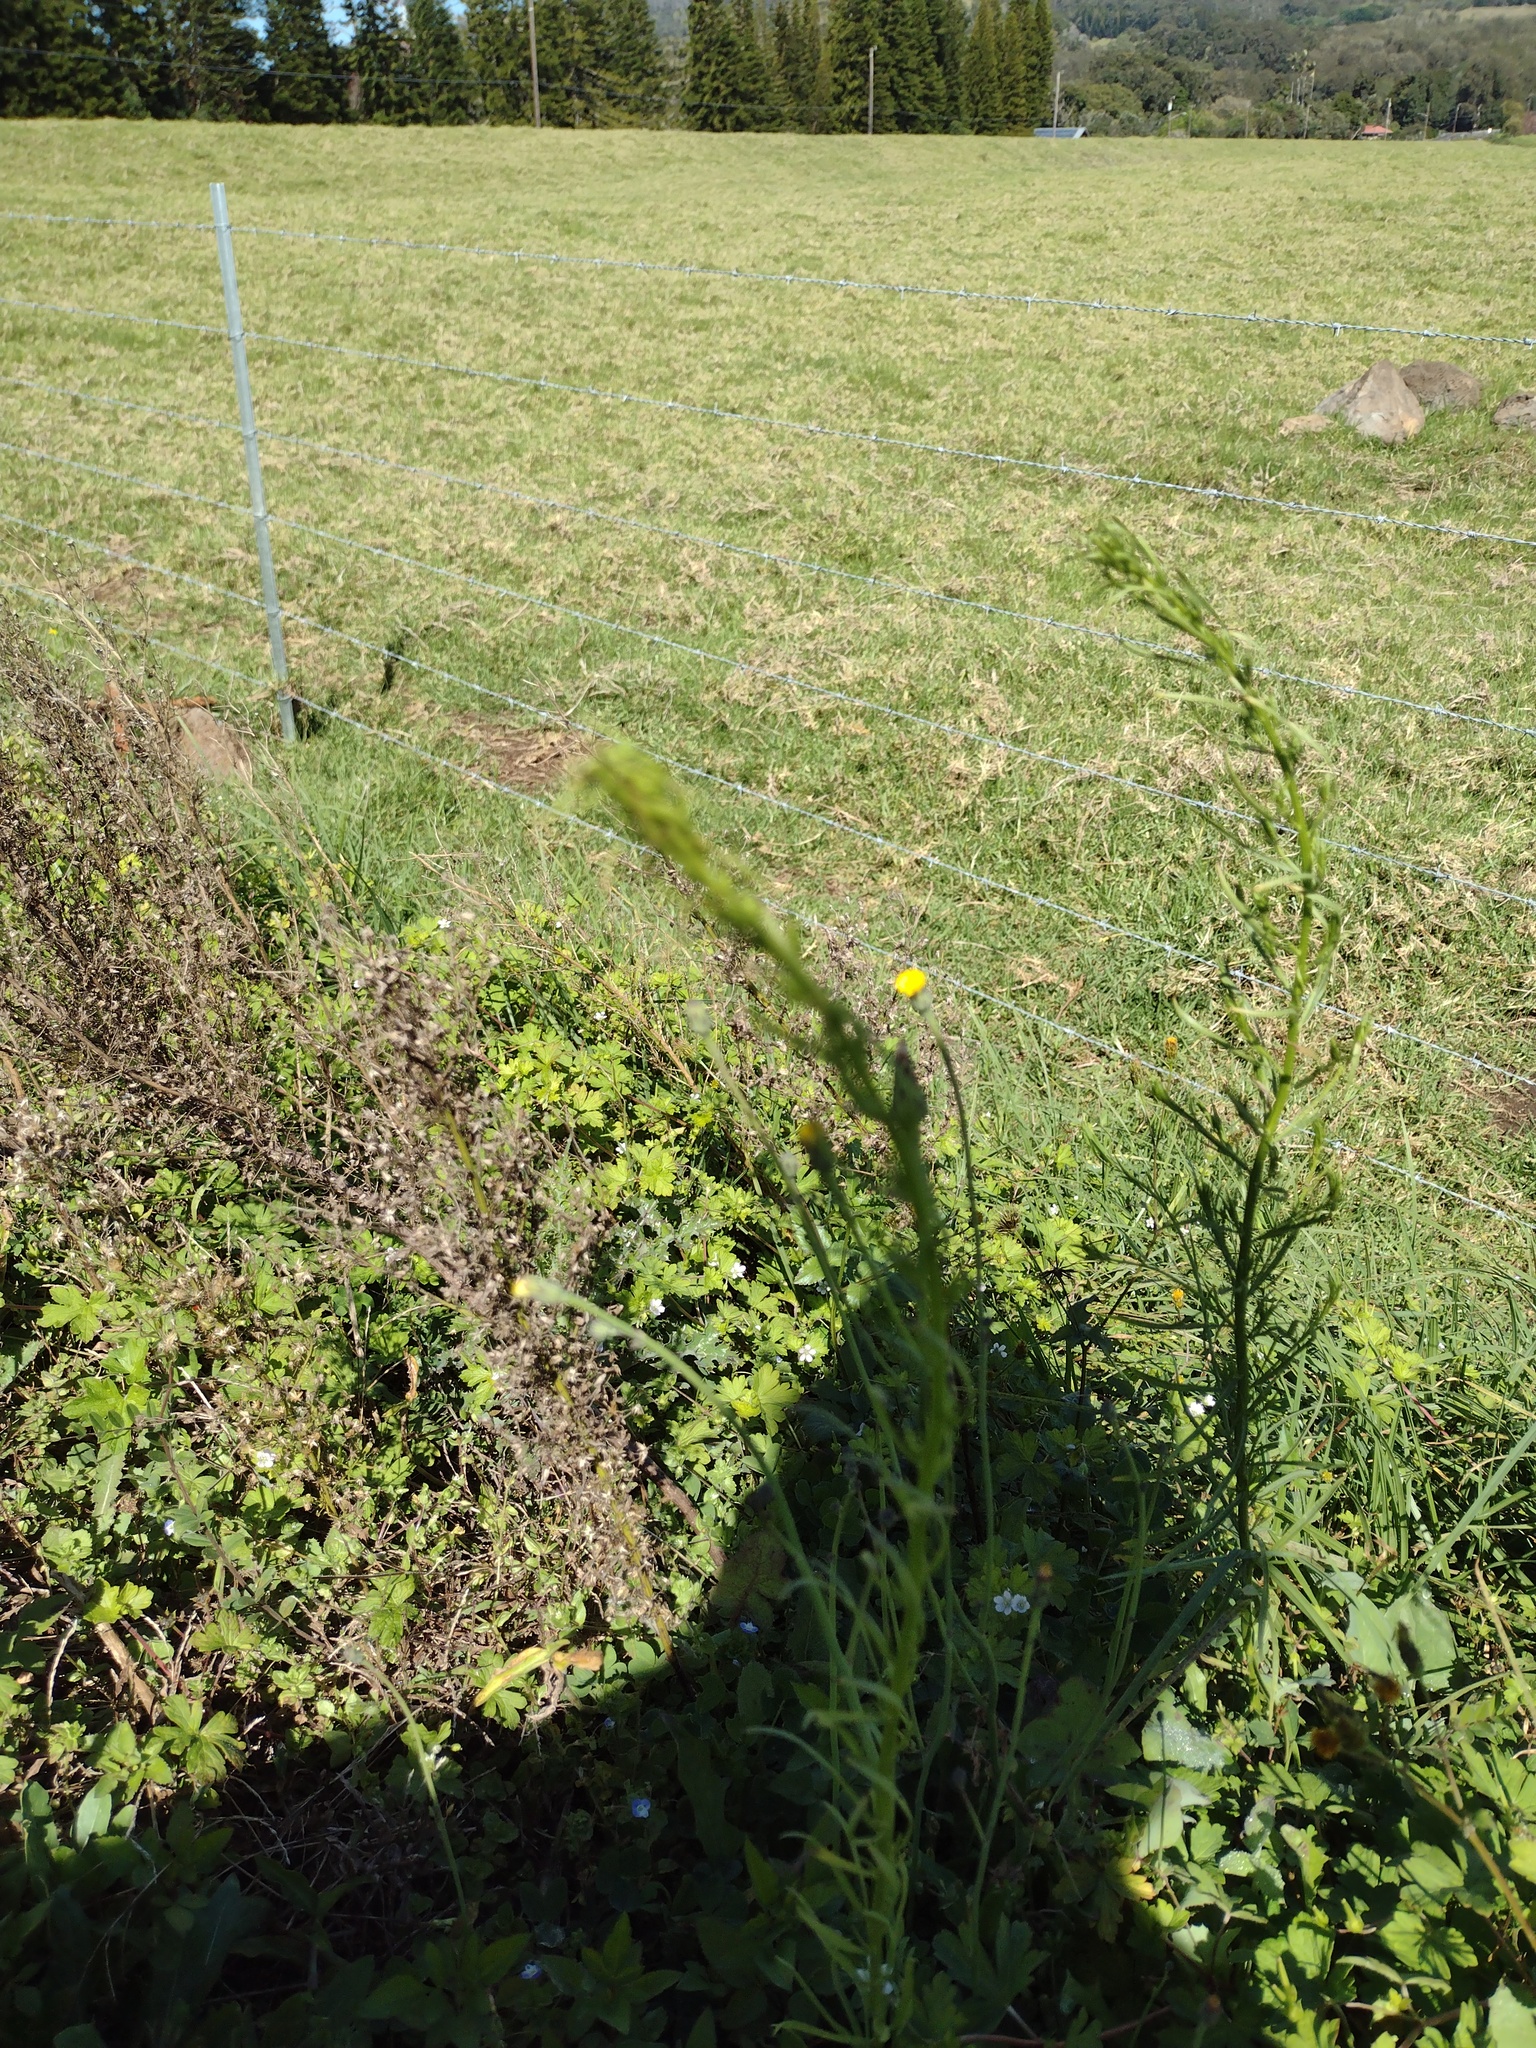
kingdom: Plantae
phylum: Tracheophyta
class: Magnoliopsida
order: Asterales
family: Asteraceae
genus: Erigeron
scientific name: Erigeron canadensis
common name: Canadian fleabane
